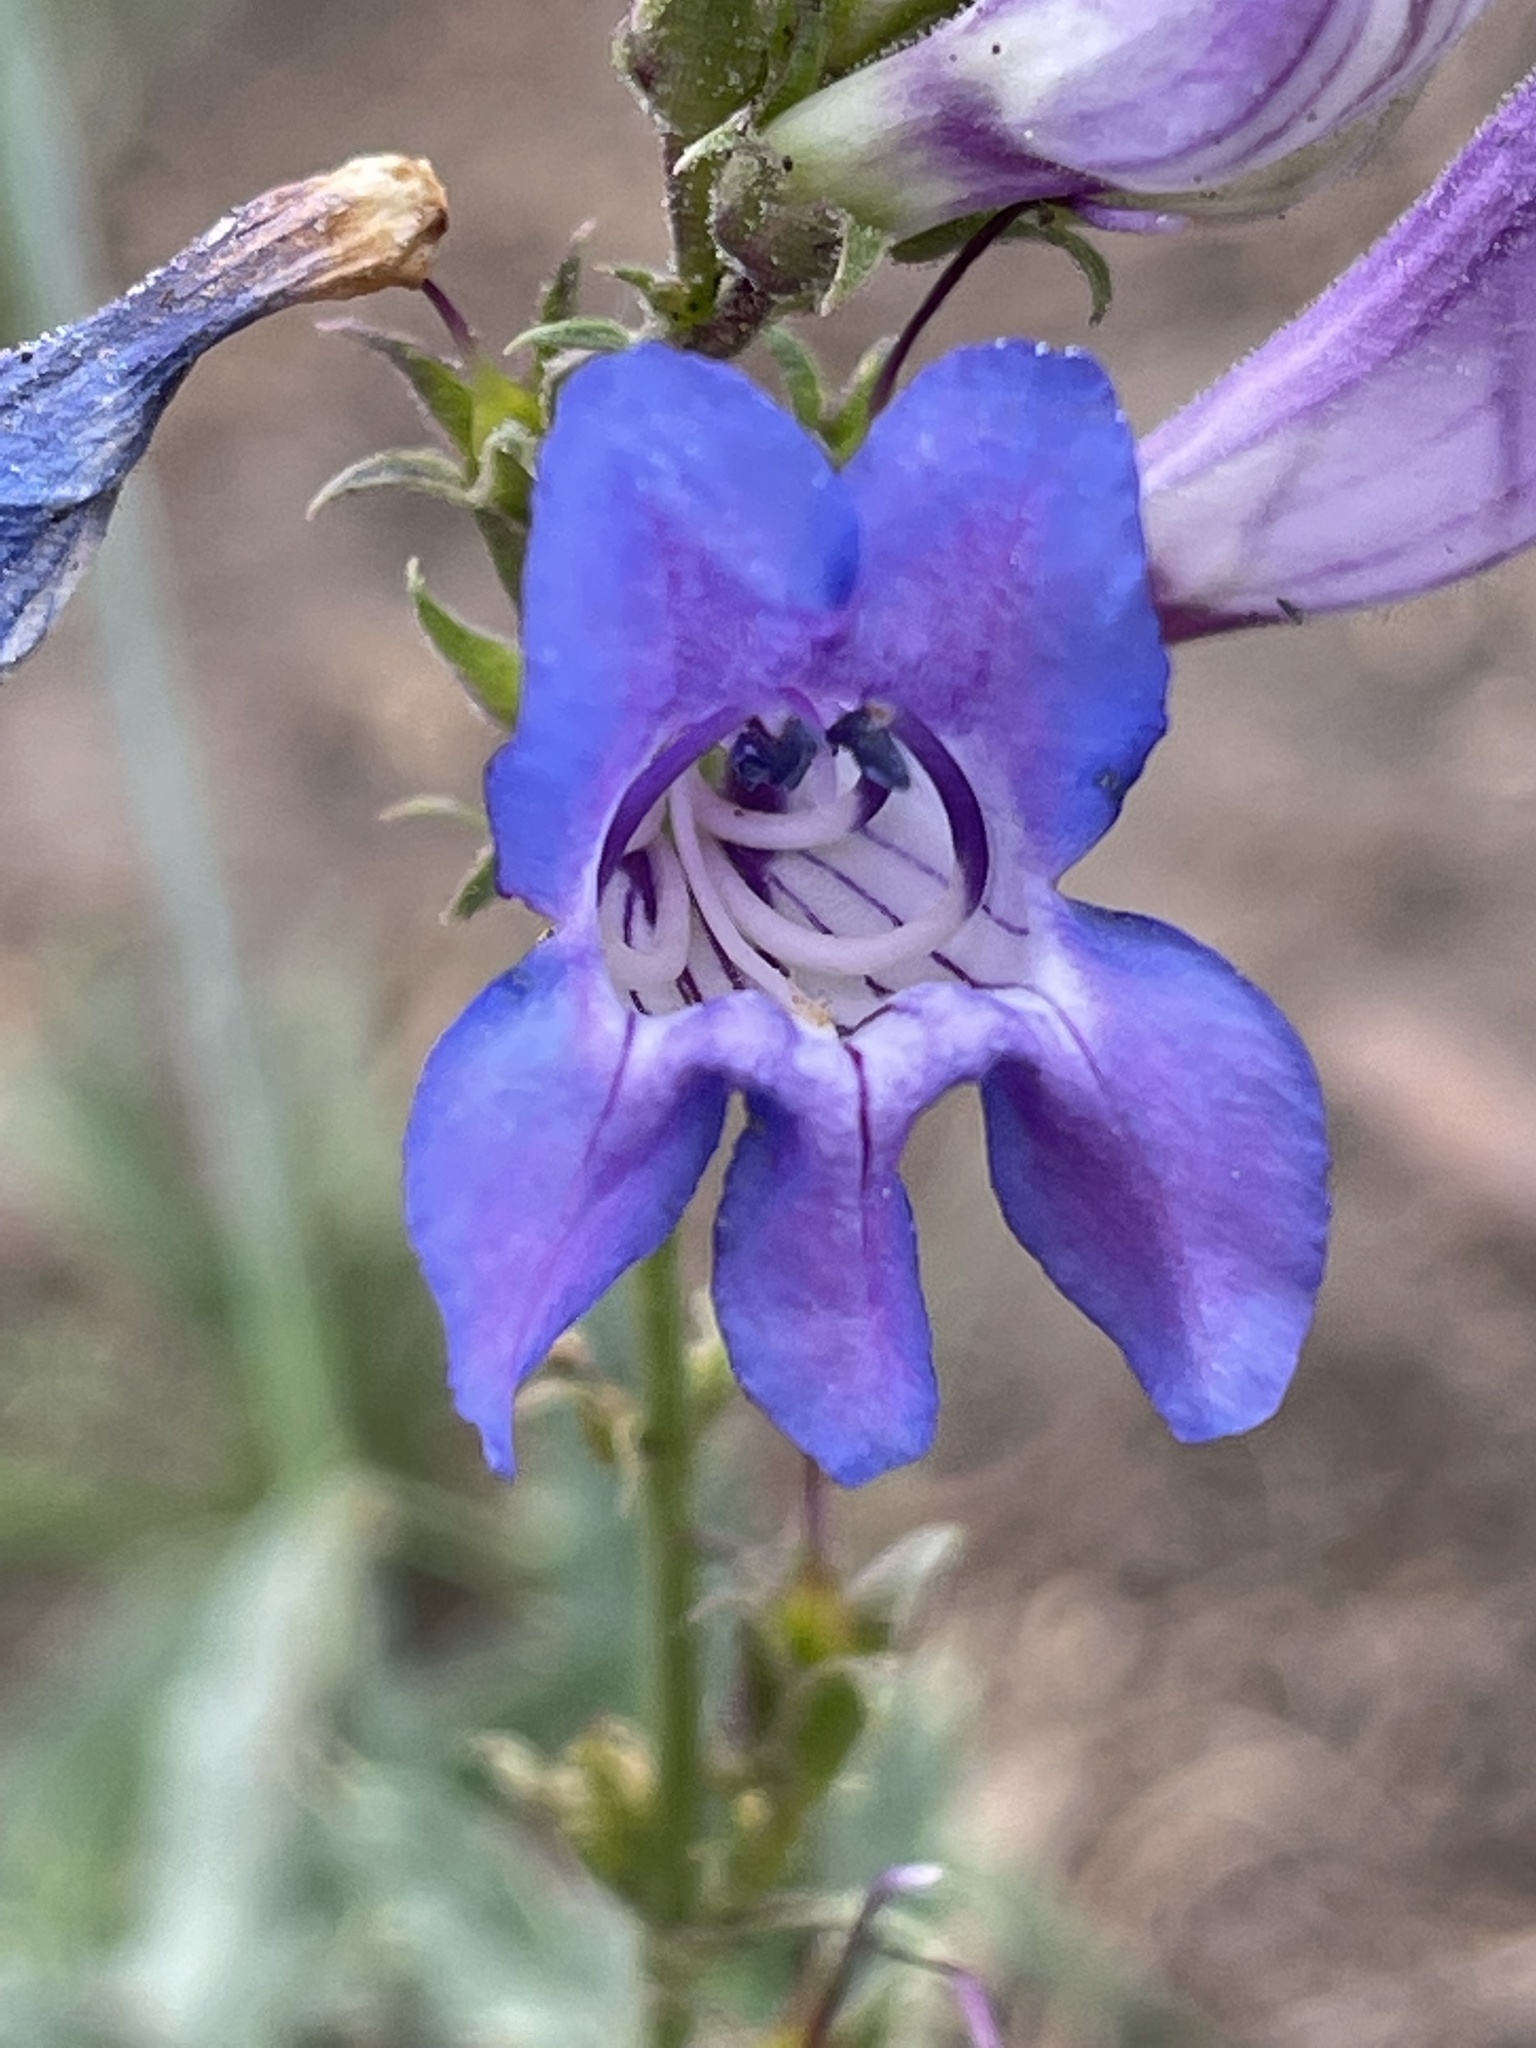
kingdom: Plantae
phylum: Tracheophyta
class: Magnoliopsida
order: Lamiales
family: Plantaginaceae
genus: Penstemon
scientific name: Penstemon leiophyllus
